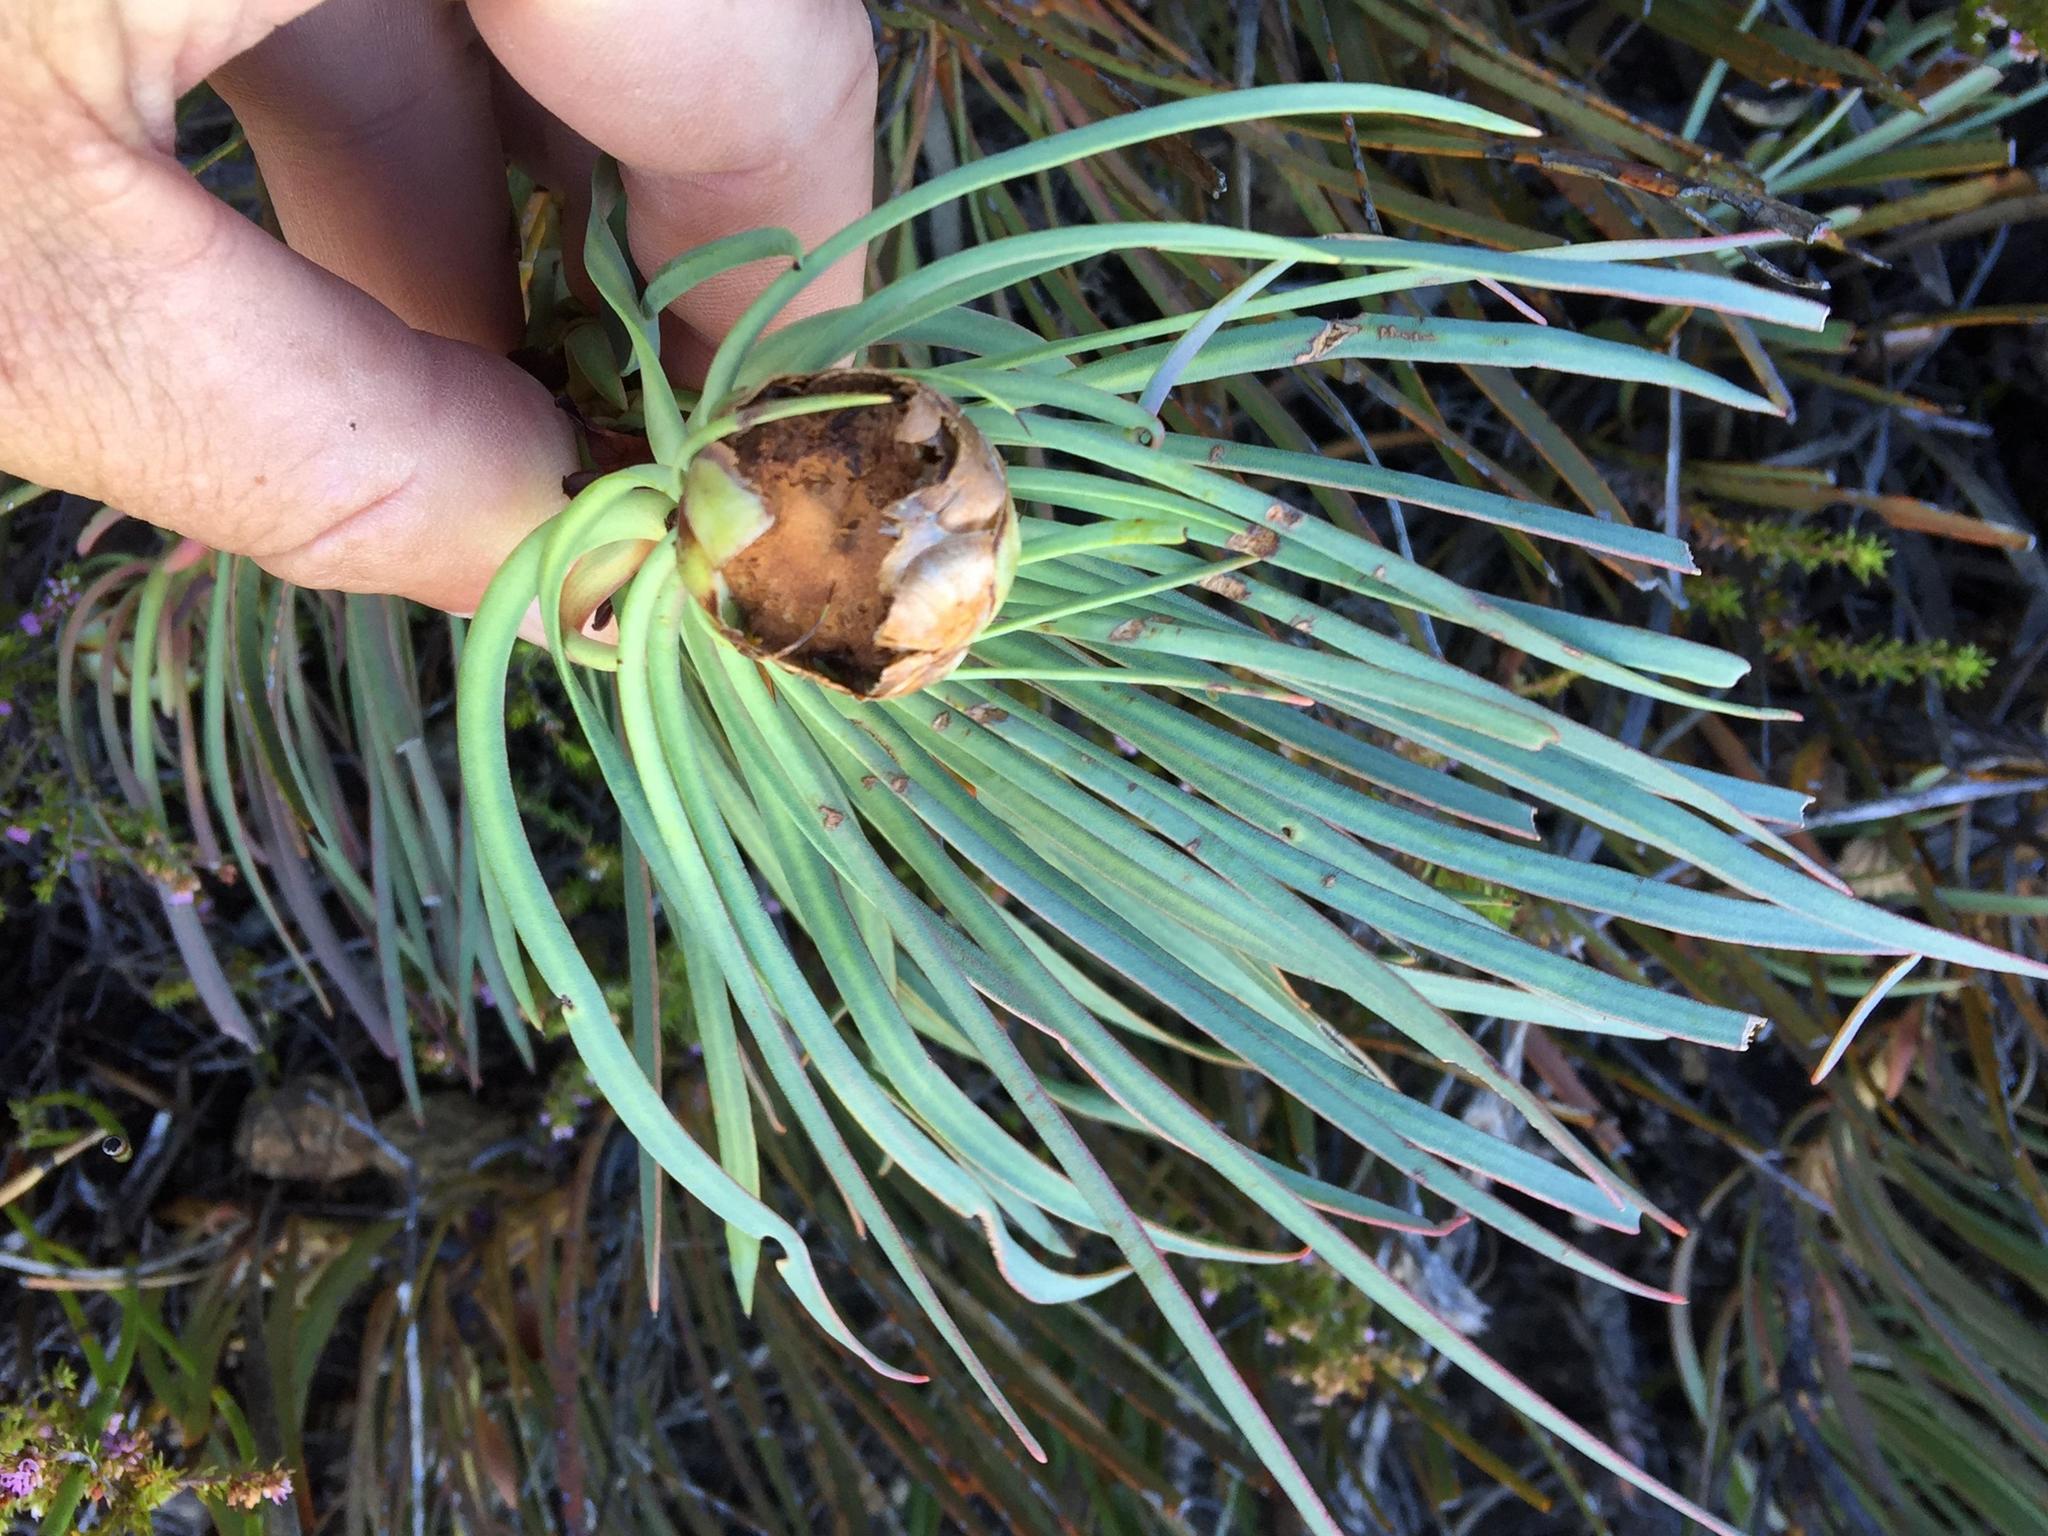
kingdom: Plantae
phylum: Tracheophyta
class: Magnoliopsida
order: Proteales
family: Proteaceae
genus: Protea
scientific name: Protea montana
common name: Swartberg sugarbush
